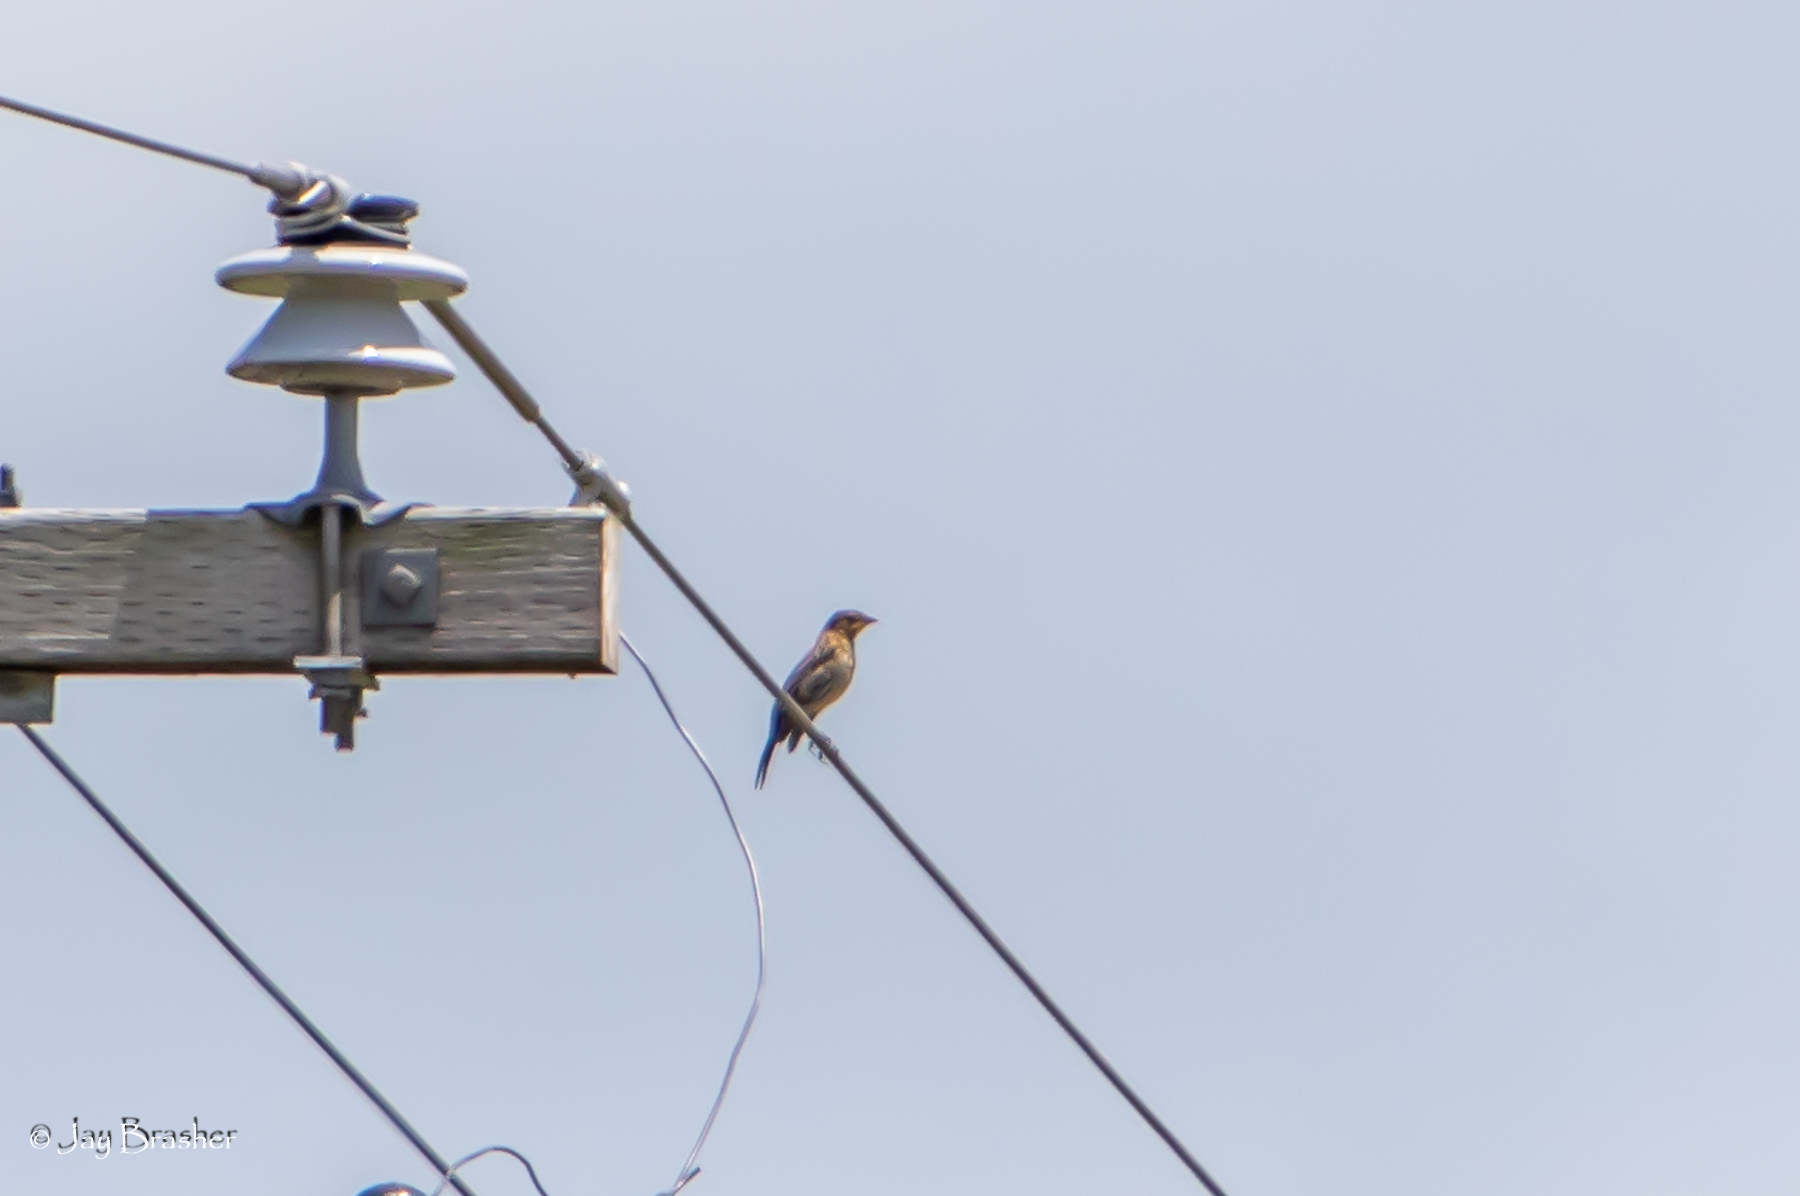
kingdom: Animalia
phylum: Chordata
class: Aves
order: Passeriformes
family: Icteridae
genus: Agelaius
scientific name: Agelaius phoeniceus
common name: Red-winged blackbird
